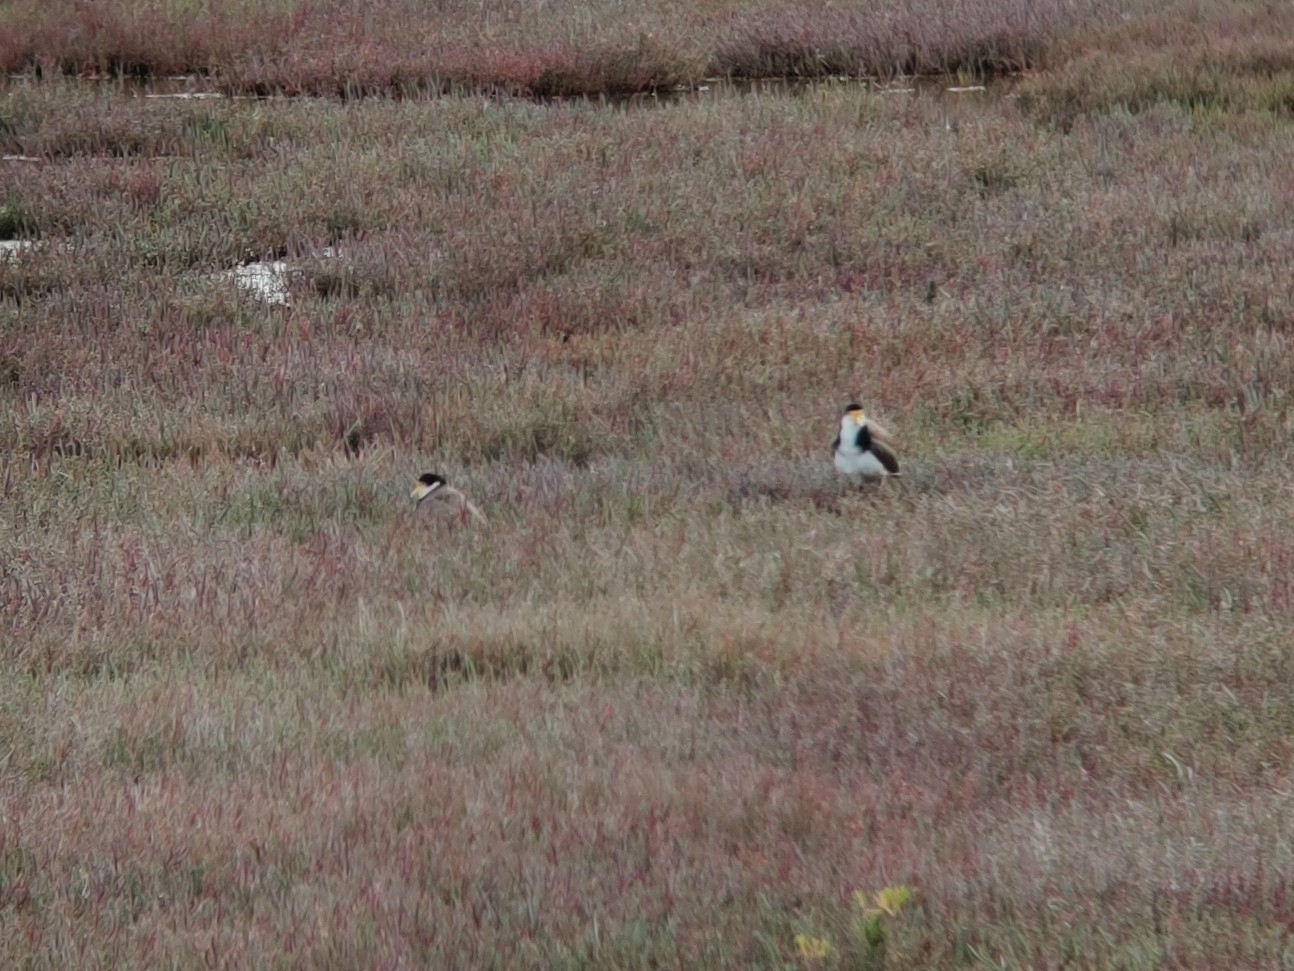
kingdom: Animalia
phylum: Chordata
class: Aves
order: Charadriiformes
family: Charadriidae
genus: Vanellus
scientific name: Vanellus miles
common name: Masked lapwing
